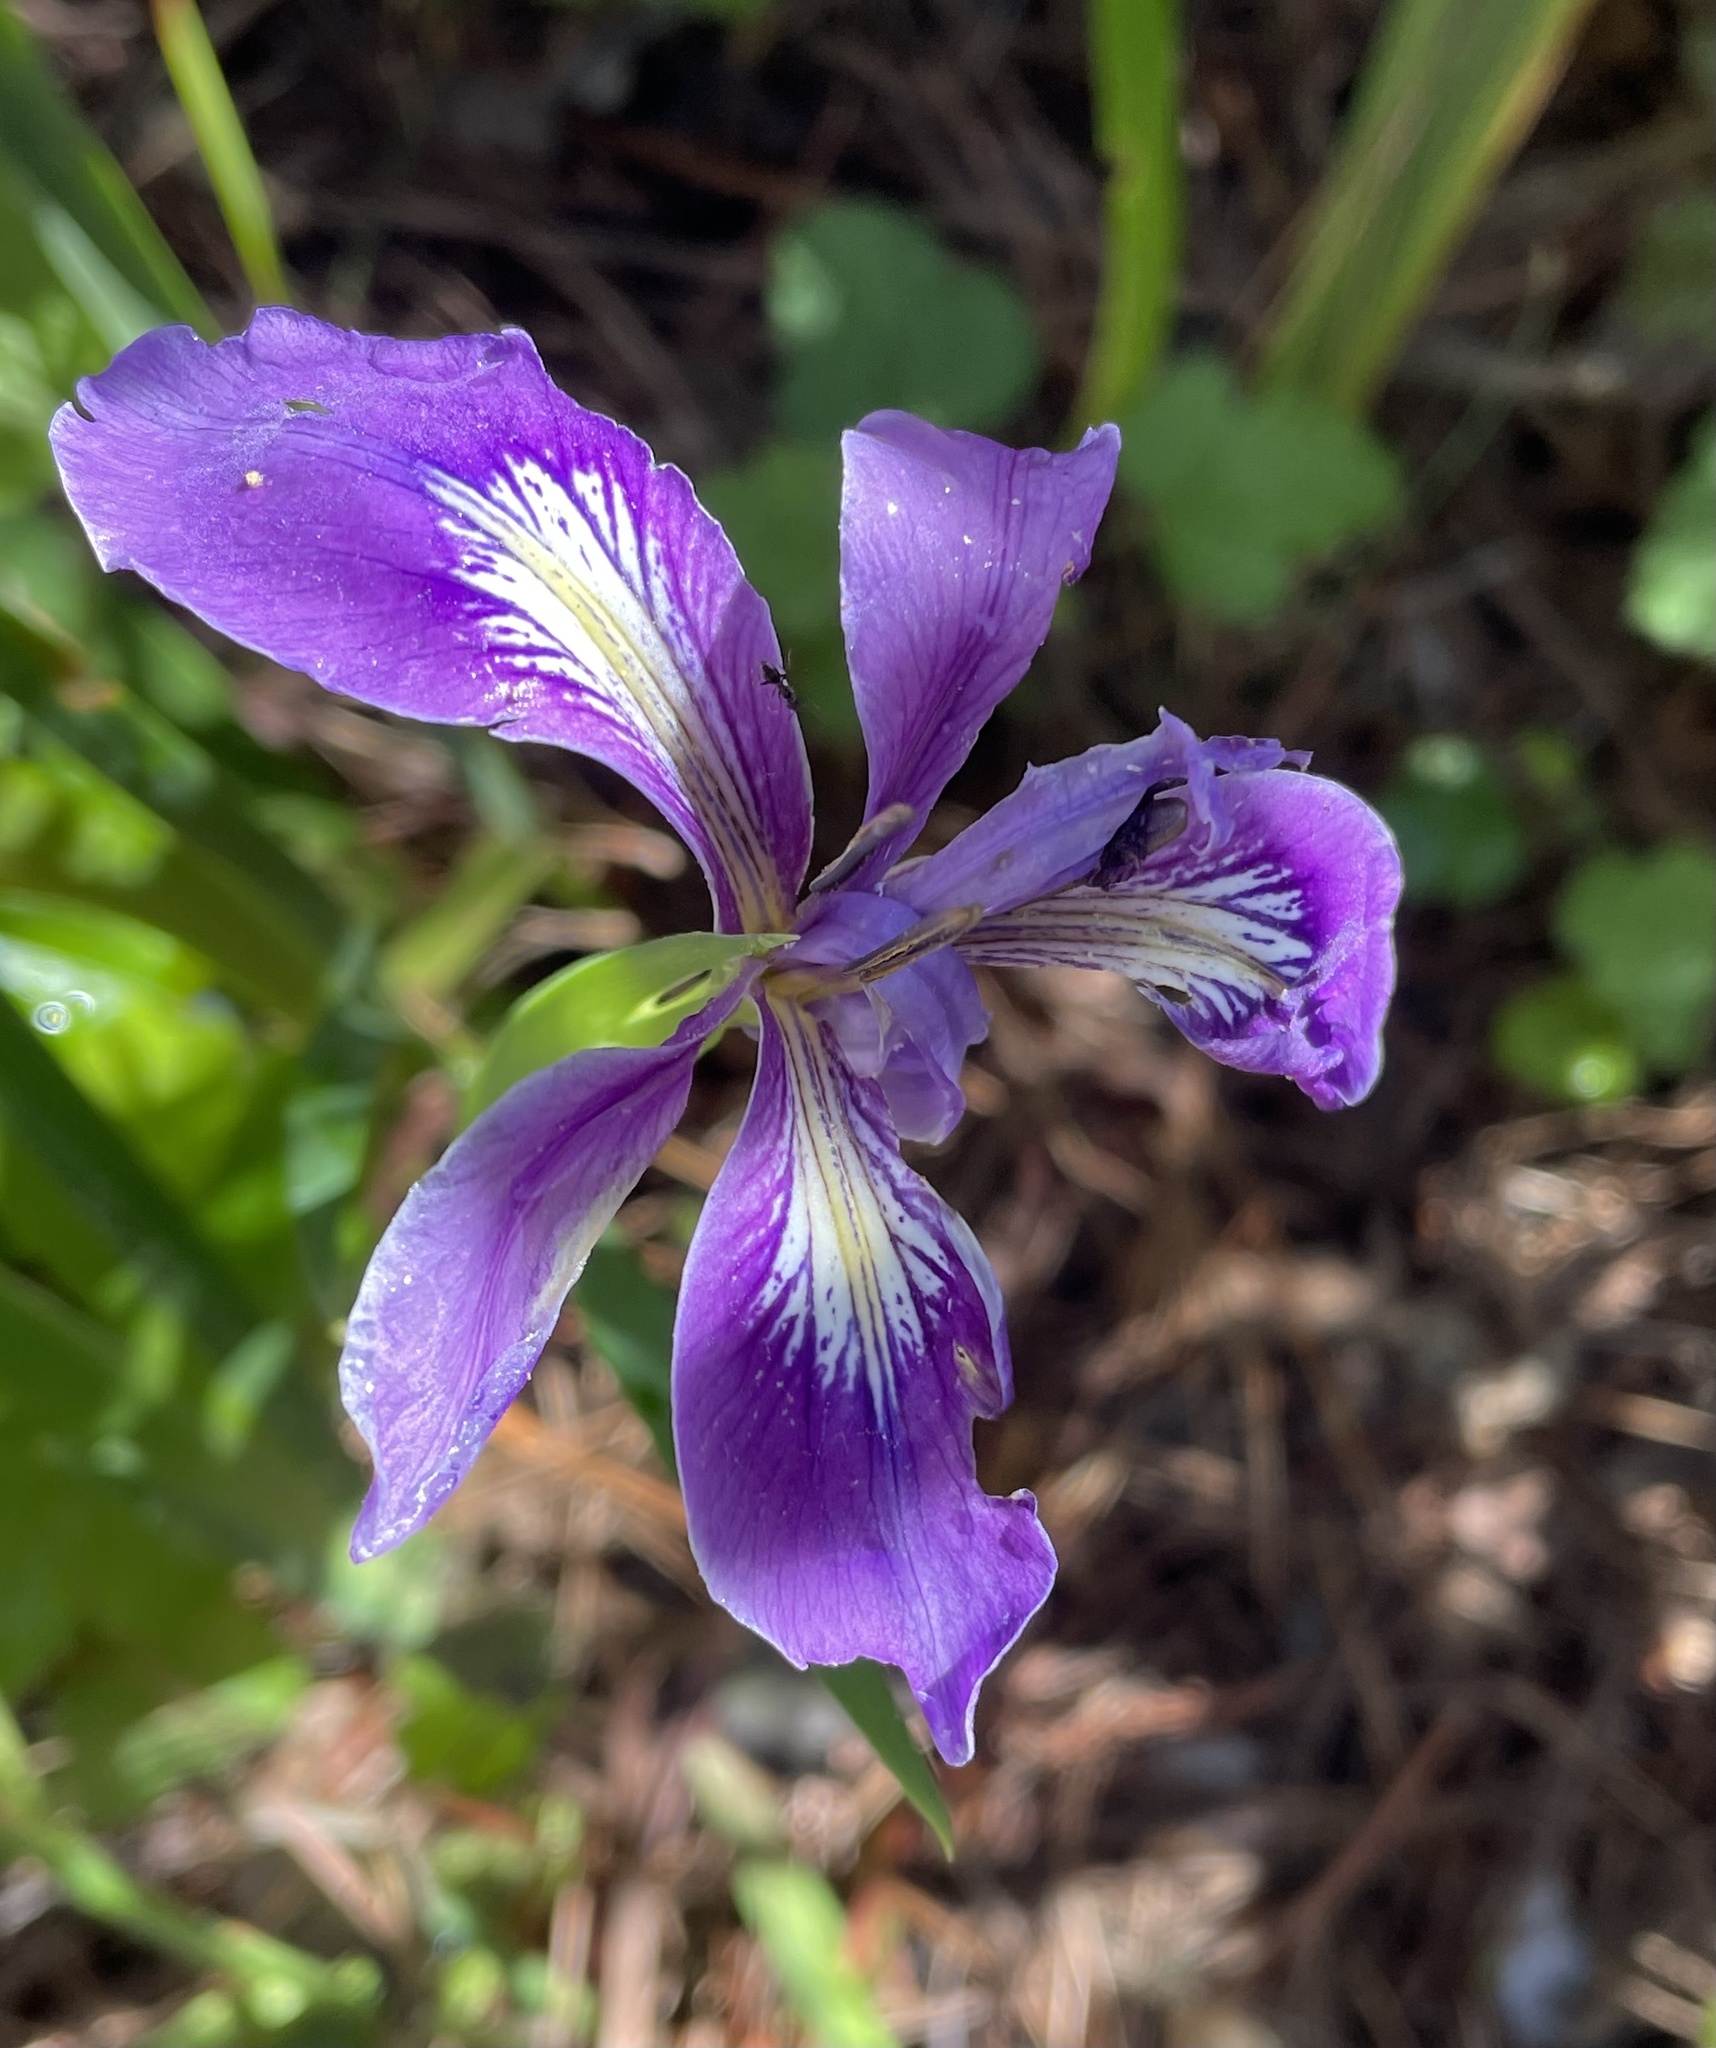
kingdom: Plantae
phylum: Tracheophyta
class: Liliopsida
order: Asparagales
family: Iridaceae
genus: Iris
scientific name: Iris douglasiana
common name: Marin iris
